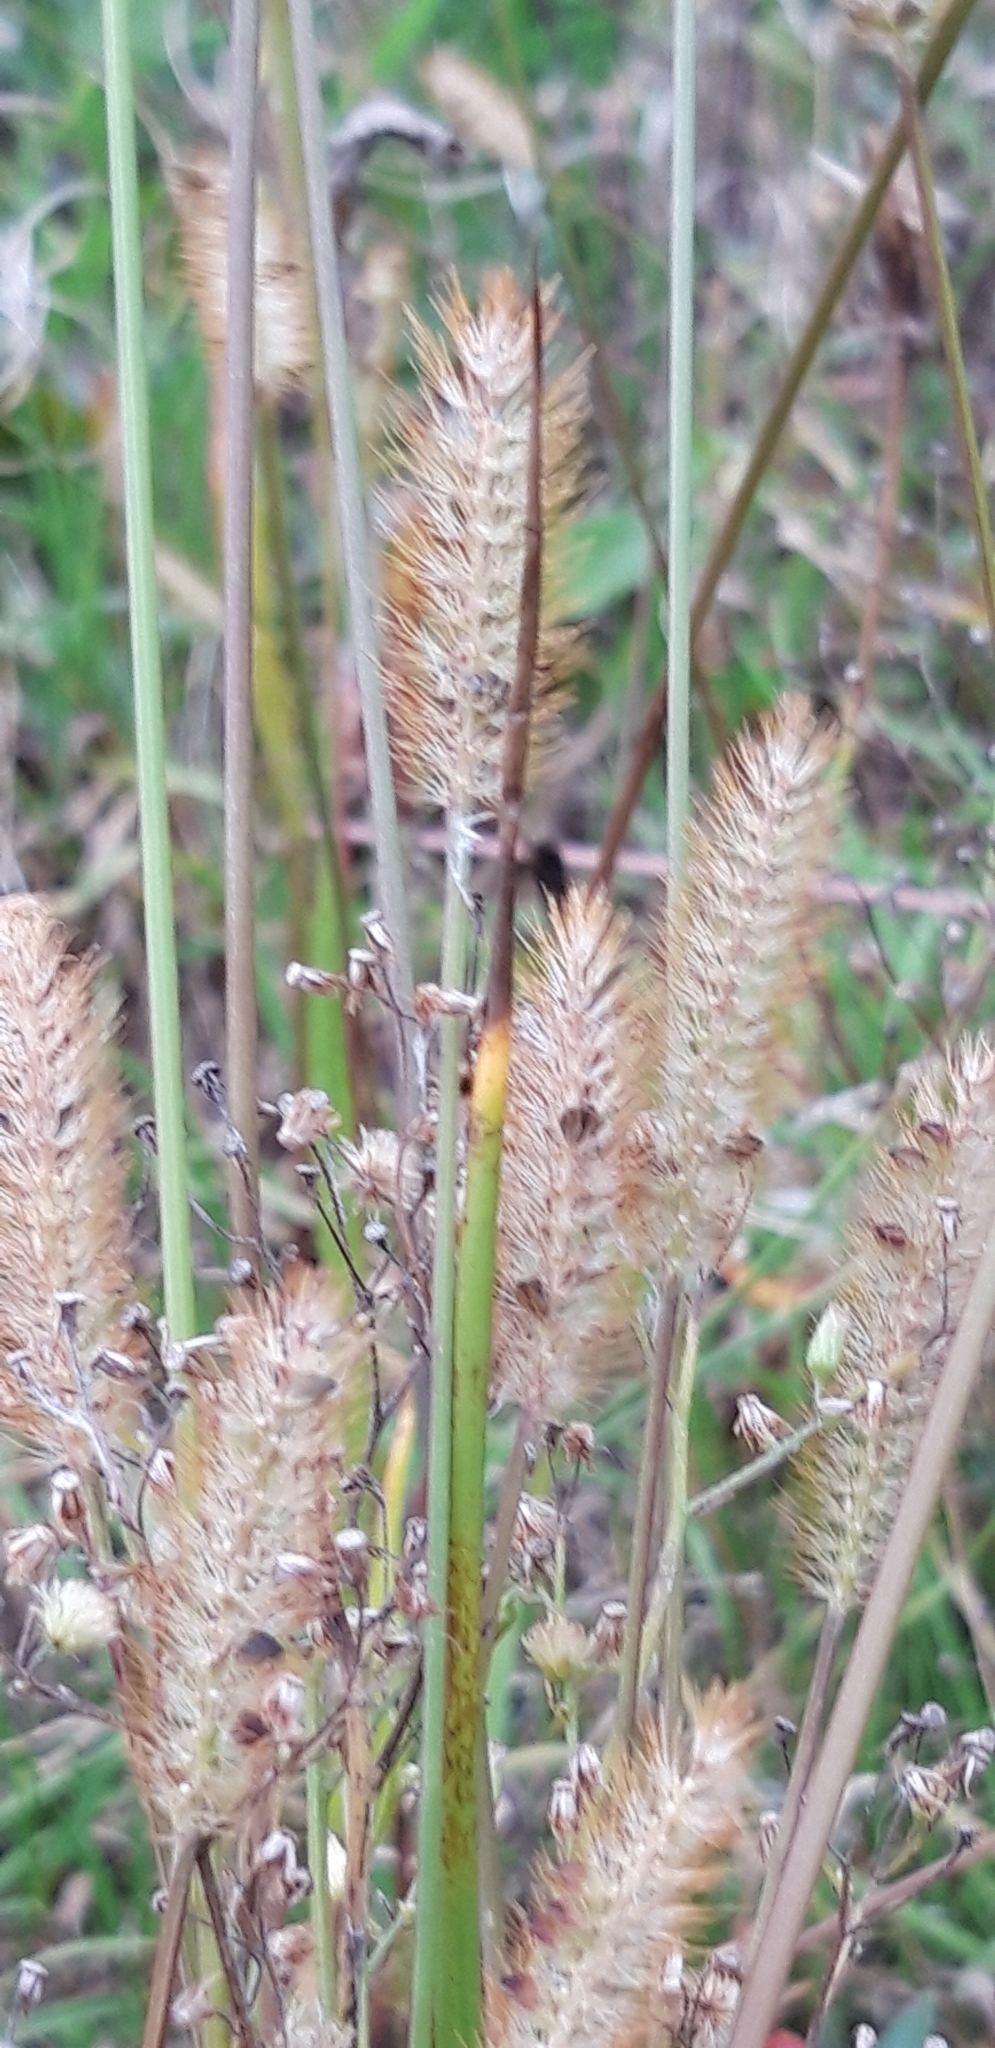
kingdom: Plantae
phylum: Tracheophyta
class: Liliopsida
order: Poales
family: Poaceae
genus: Setaria
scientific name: Setaria pumila
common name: Yellow bristle-grass
